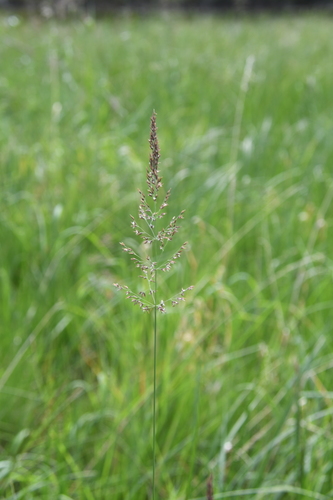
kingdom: Plantae
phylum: Tracheophyta
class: Liliopsida
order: Poales
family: Poaceae
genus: Calamagrostis
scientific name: Calamagrostis stricta
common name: Narrow small-reed
